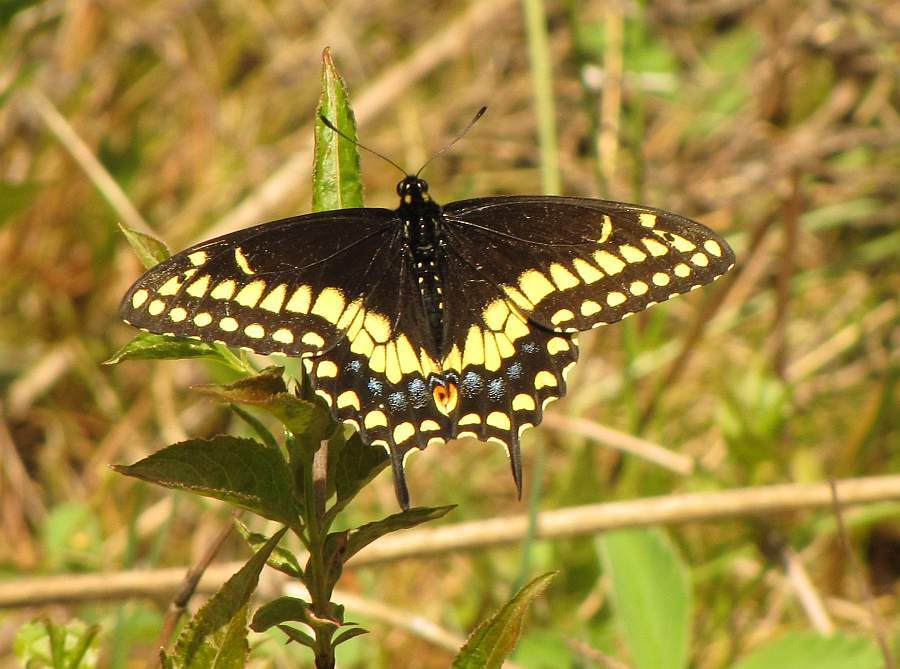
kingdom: Animalia
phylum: Arthropoda
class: Insecta
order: Lepidoptera
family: Papilionidae
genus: Papilio
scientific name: Papilio polyxenes
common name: Black swallowtail
